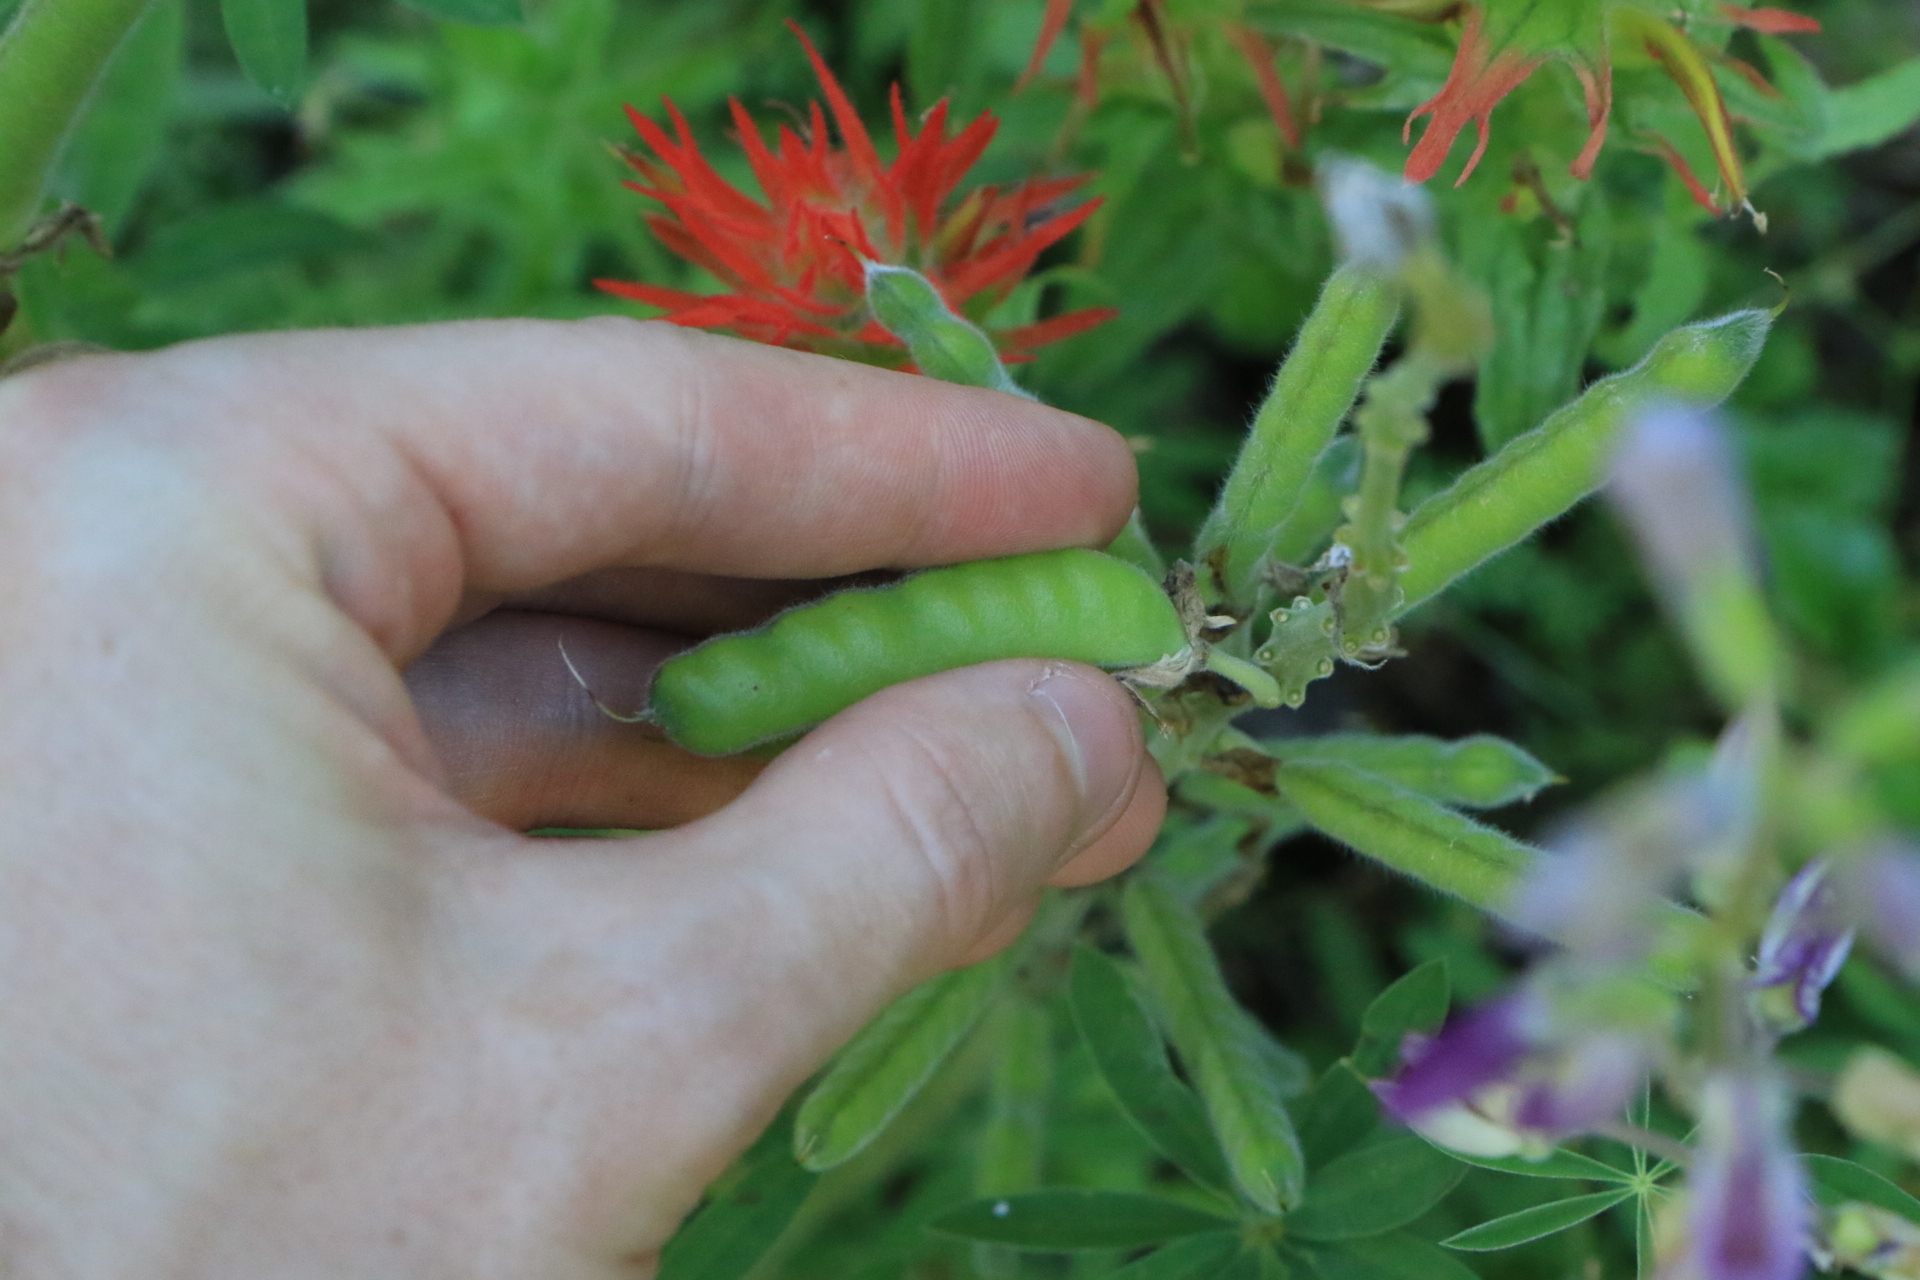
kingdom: Plantae
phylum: Tracheophyta
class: Magnoliopsida
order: Fabales
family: Fabaceae
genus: Lupinus
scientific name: Lupinus rivularis
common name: Riverbank lupine
